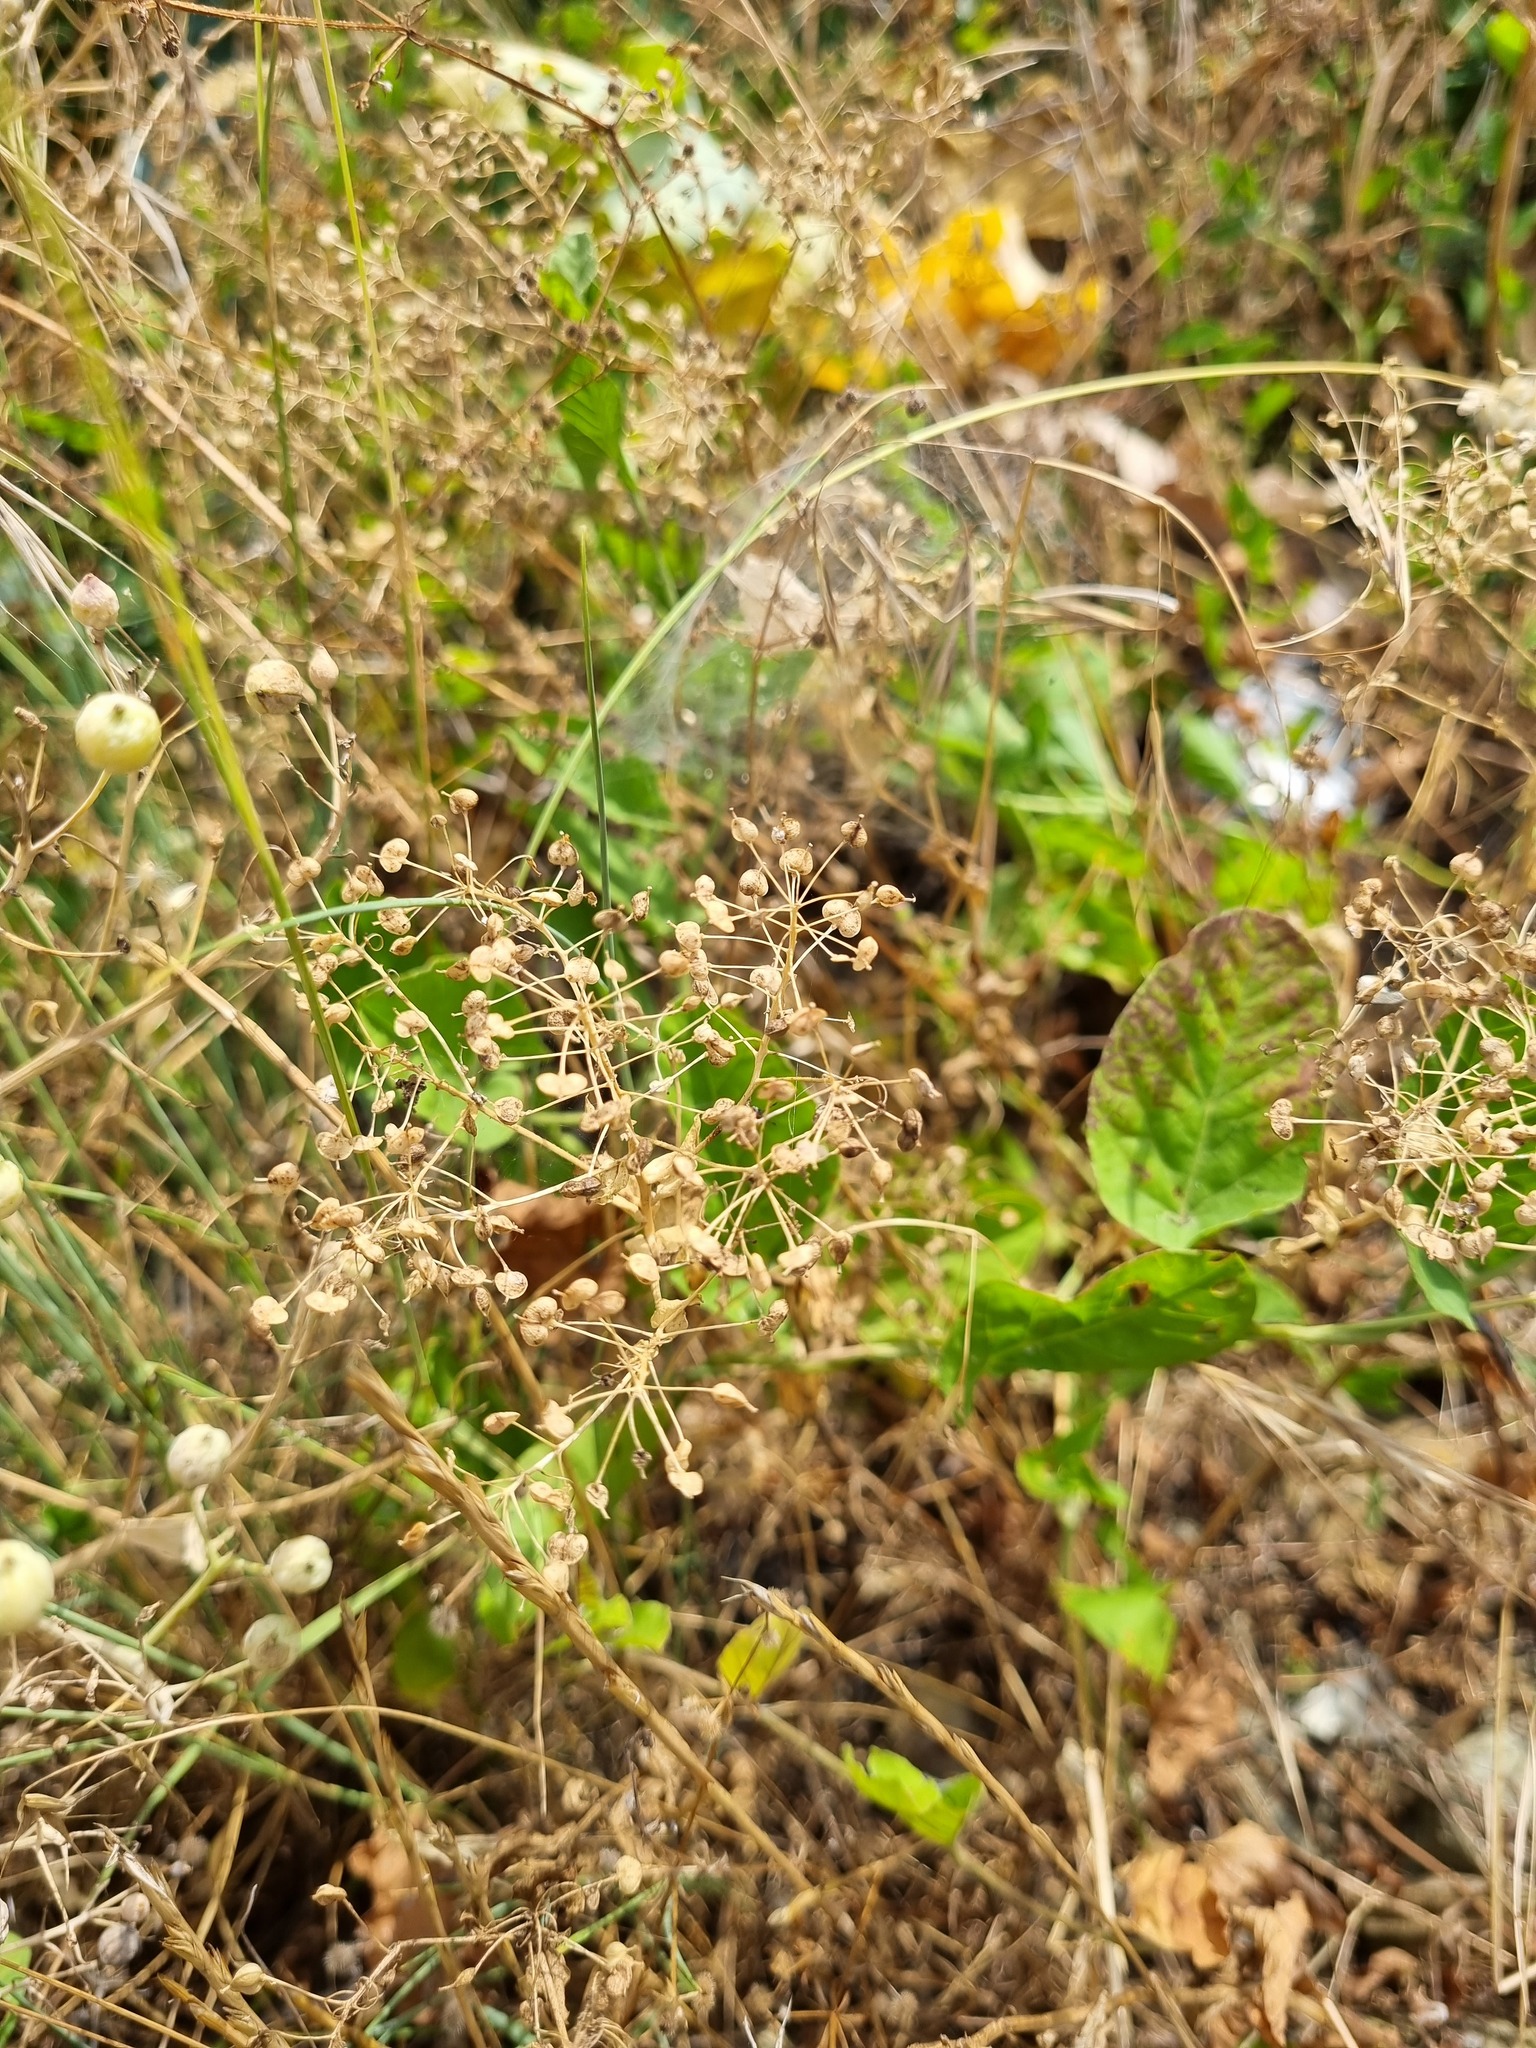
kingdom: Plantae
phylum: Tracheophyta
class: Magnoliopsida
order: Brassicales
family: Brassicaceae
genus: Lepidium
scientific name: Lepidium draba
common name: Hoary cress
